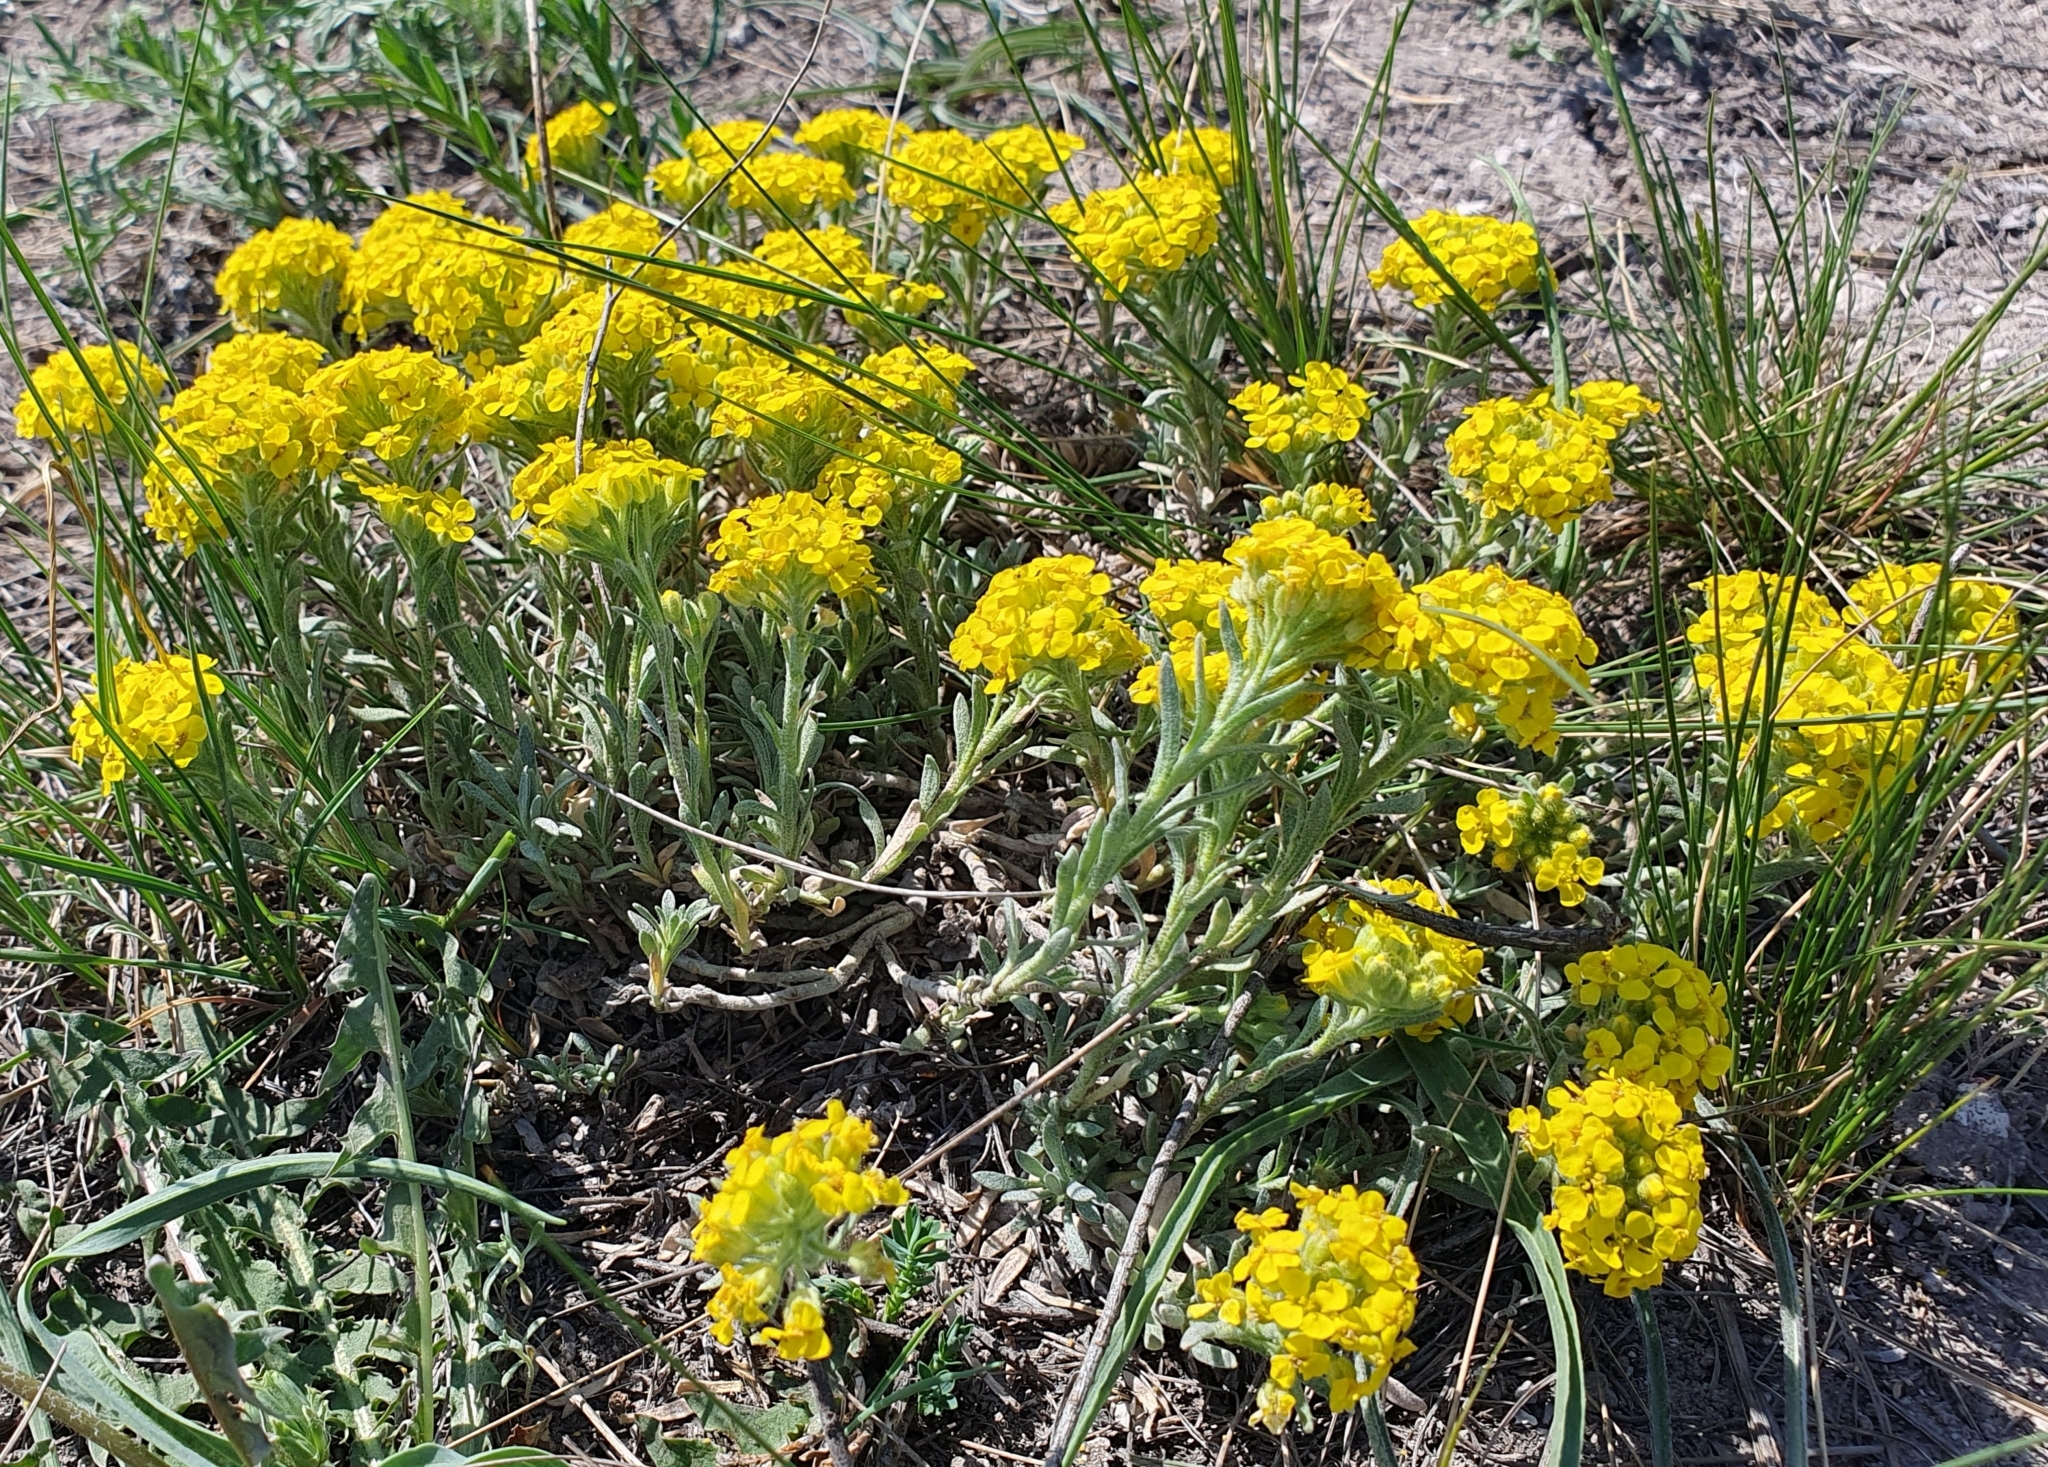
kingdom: Plantae
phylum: Tracheophyta
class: Magnoliopsida
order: Brassicales
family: Brassicaceae
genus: Alyssum
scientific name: Alyssum lenense
